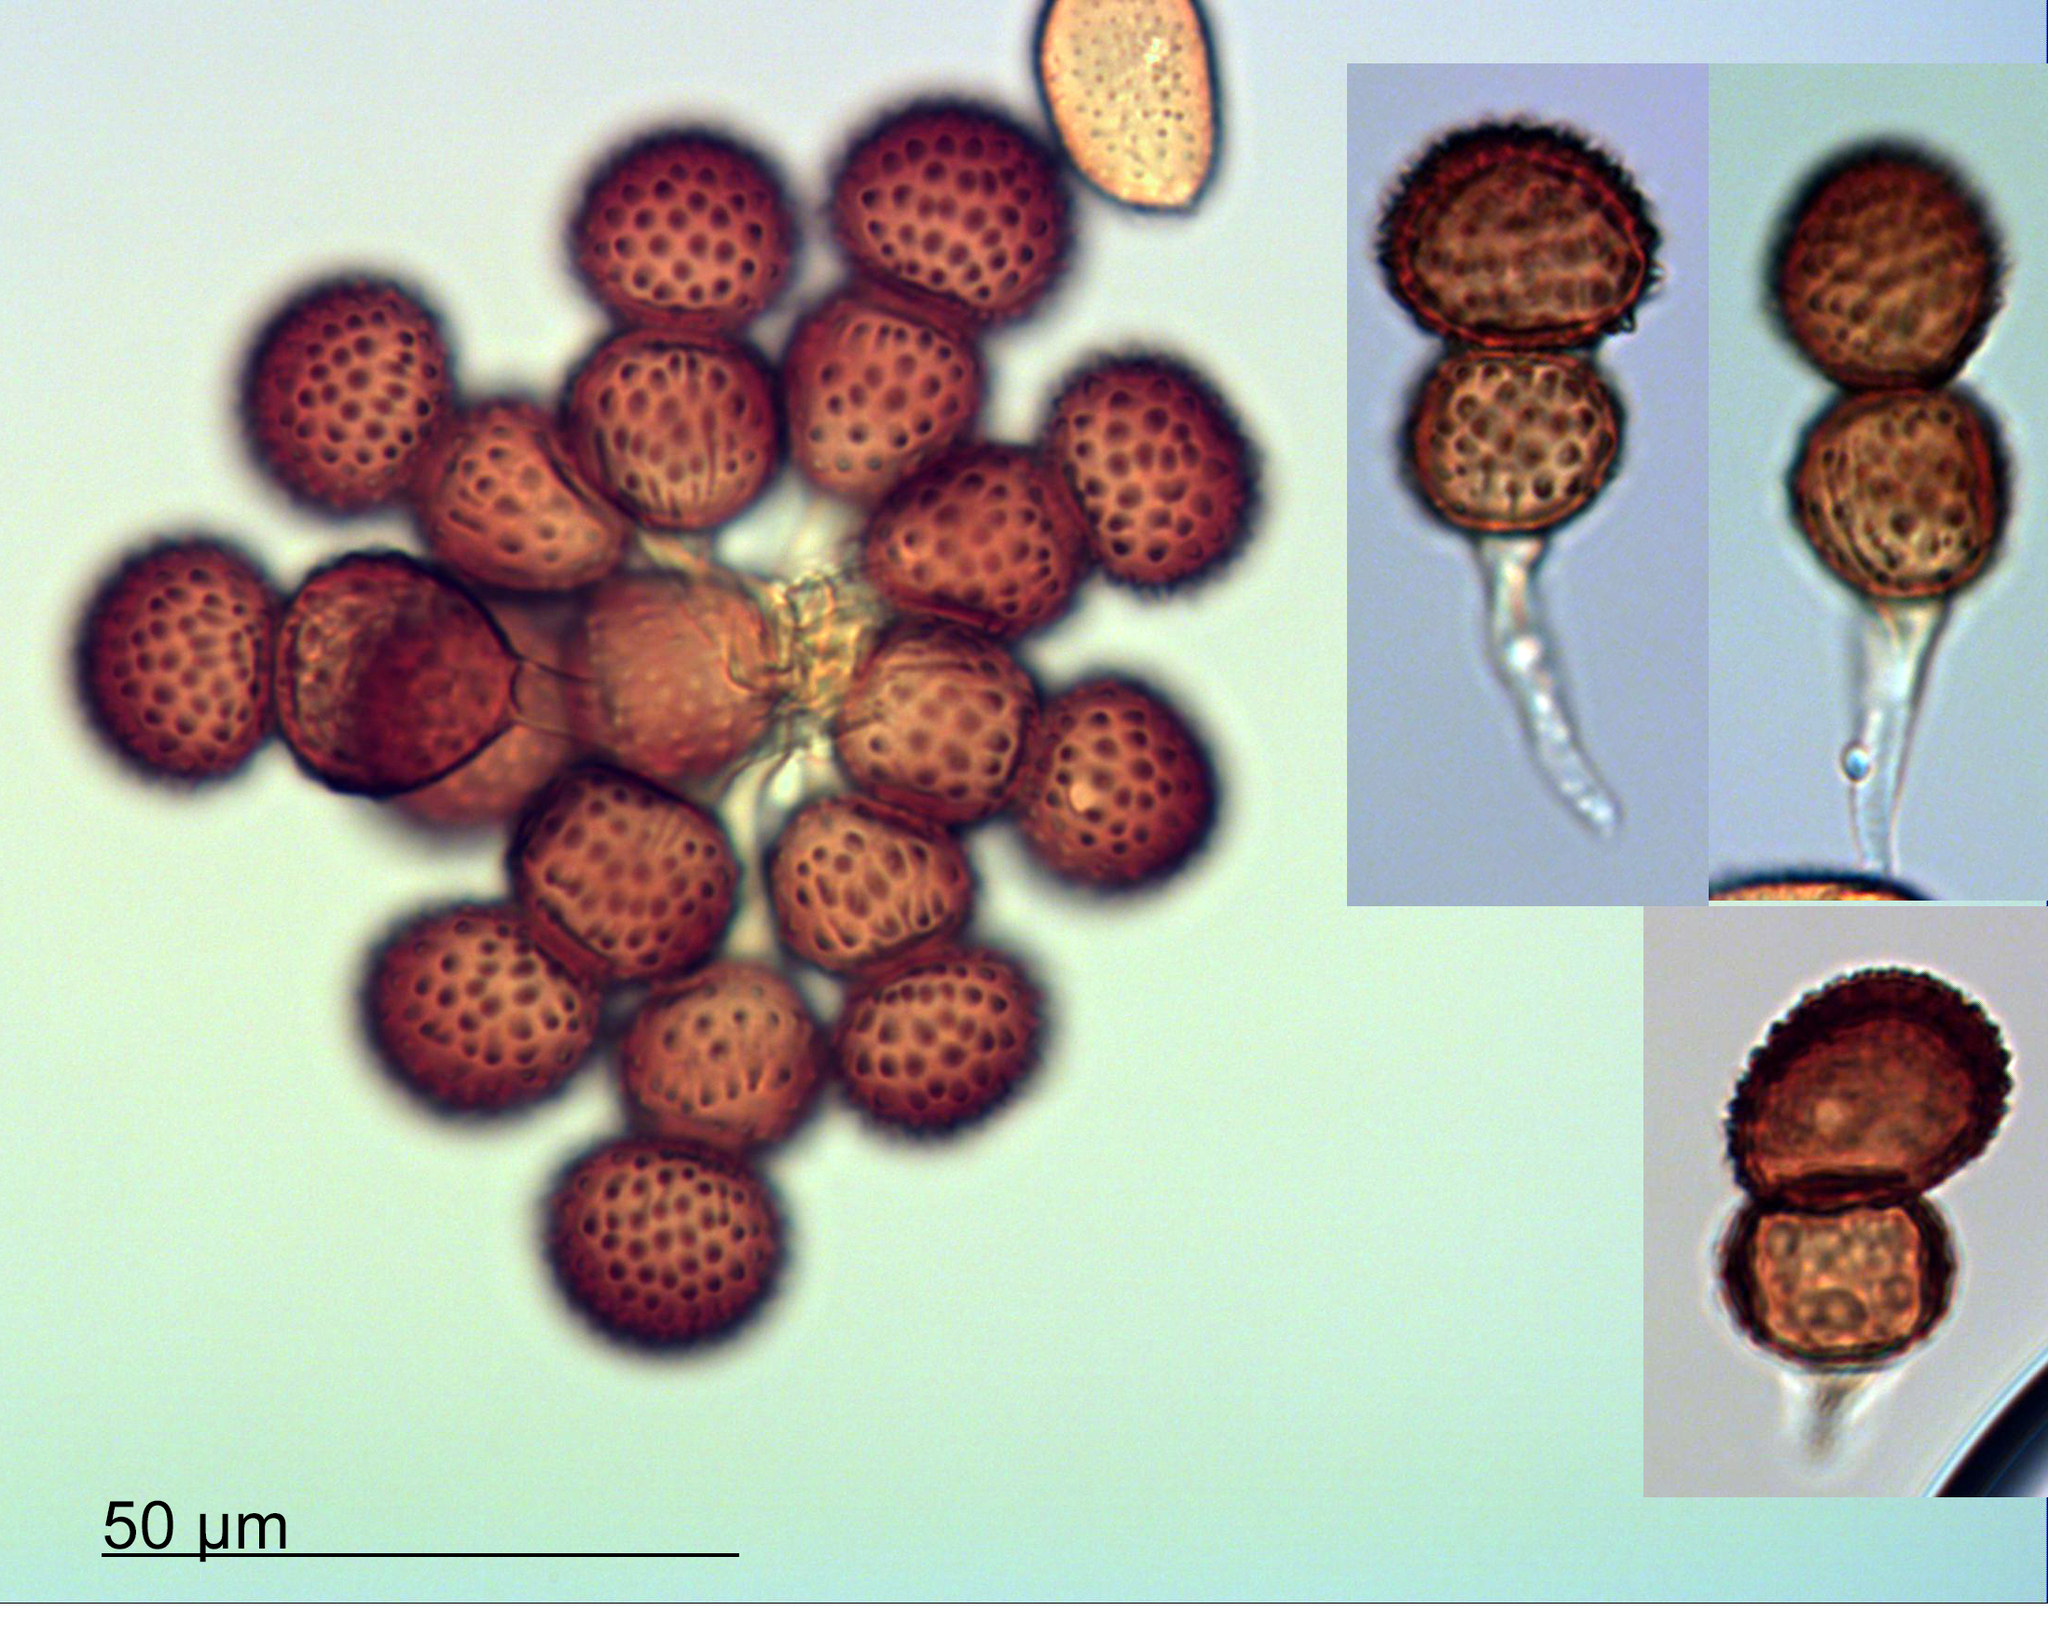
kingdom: Fungi
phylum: Basidiomycota
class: Pucciniomycetes
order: Pucciniales
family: Tranzscheliaceae
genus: Tranzschelia
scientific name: Tranzschelia discolor
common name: Plum rust
